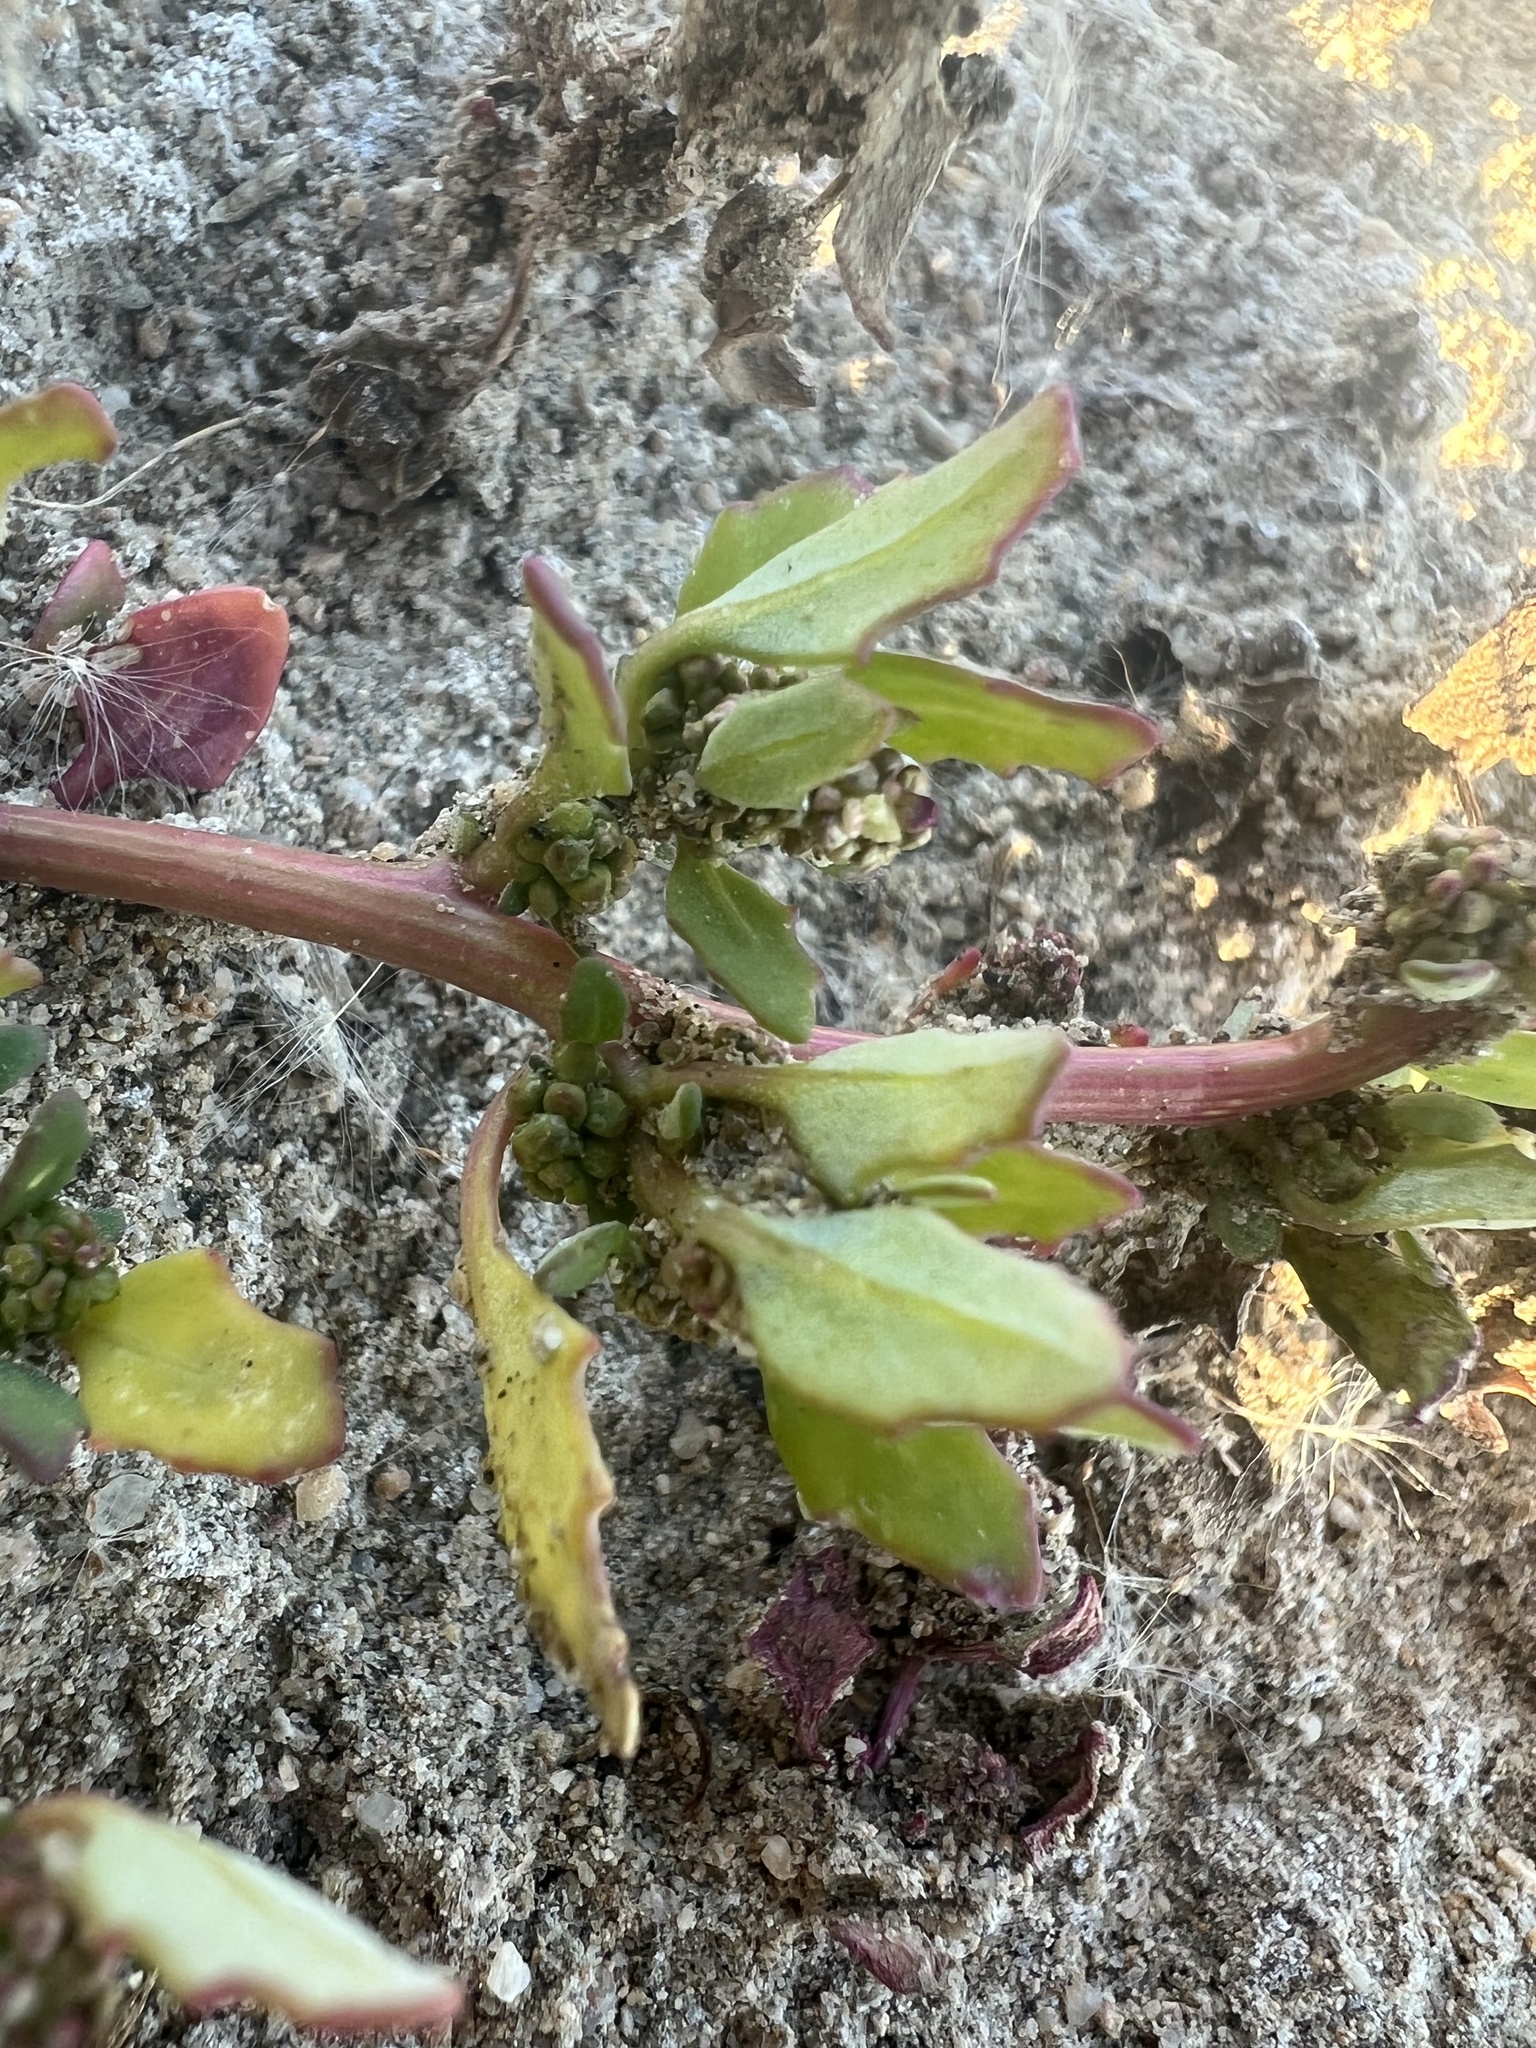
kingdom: Plantae
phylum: Tracheophyta
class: Magnoliopsida
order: Caryophyllales
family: Amaranthaceae
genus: Oxybasis
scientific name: Oxybasis glauca
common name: Glaucous goosefoot
